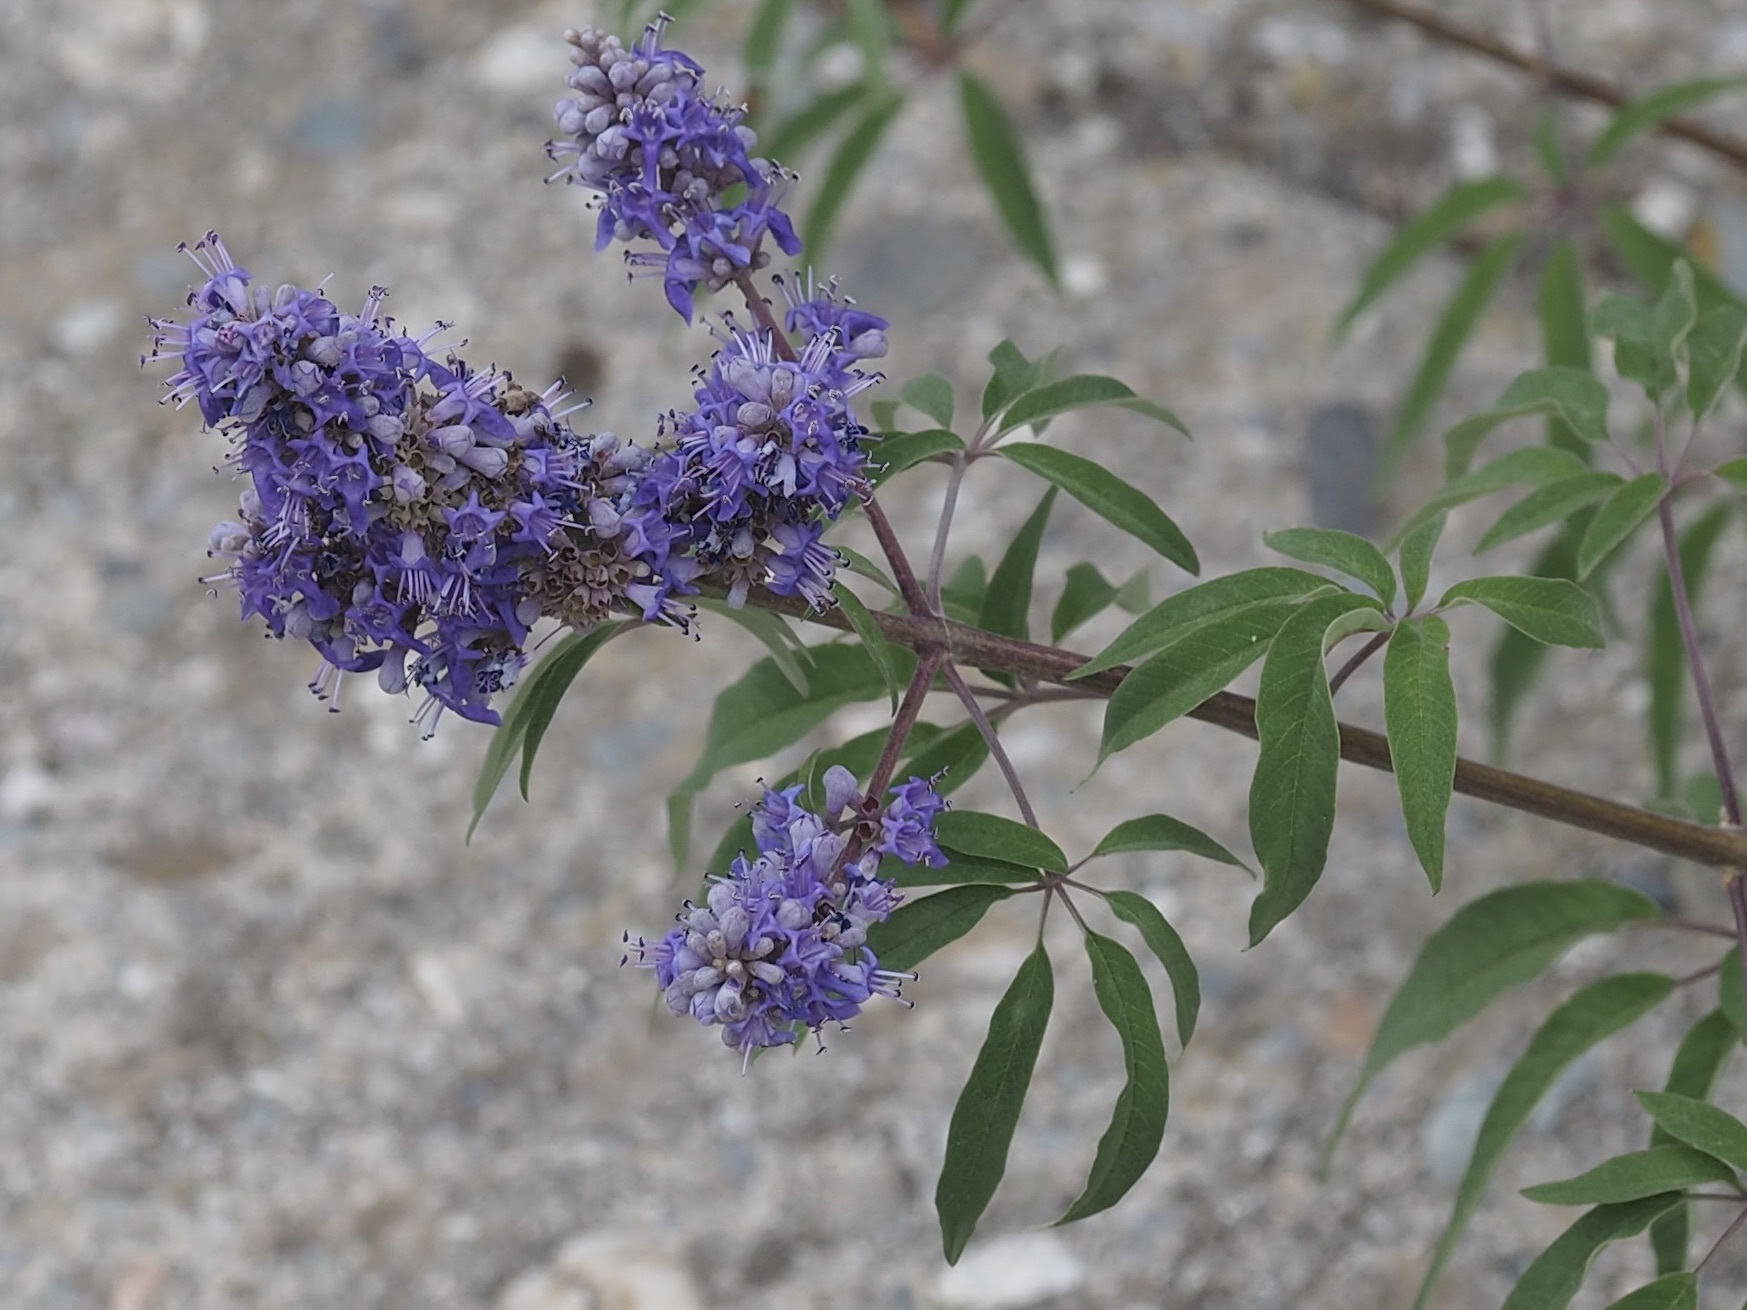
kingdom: Plantae
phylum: Tracheophyta
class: Magnoliopsida
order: Lamiales
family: Lamiaceae
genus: Vitex
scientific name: Vitex agnus-castus
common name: Chasteberry
